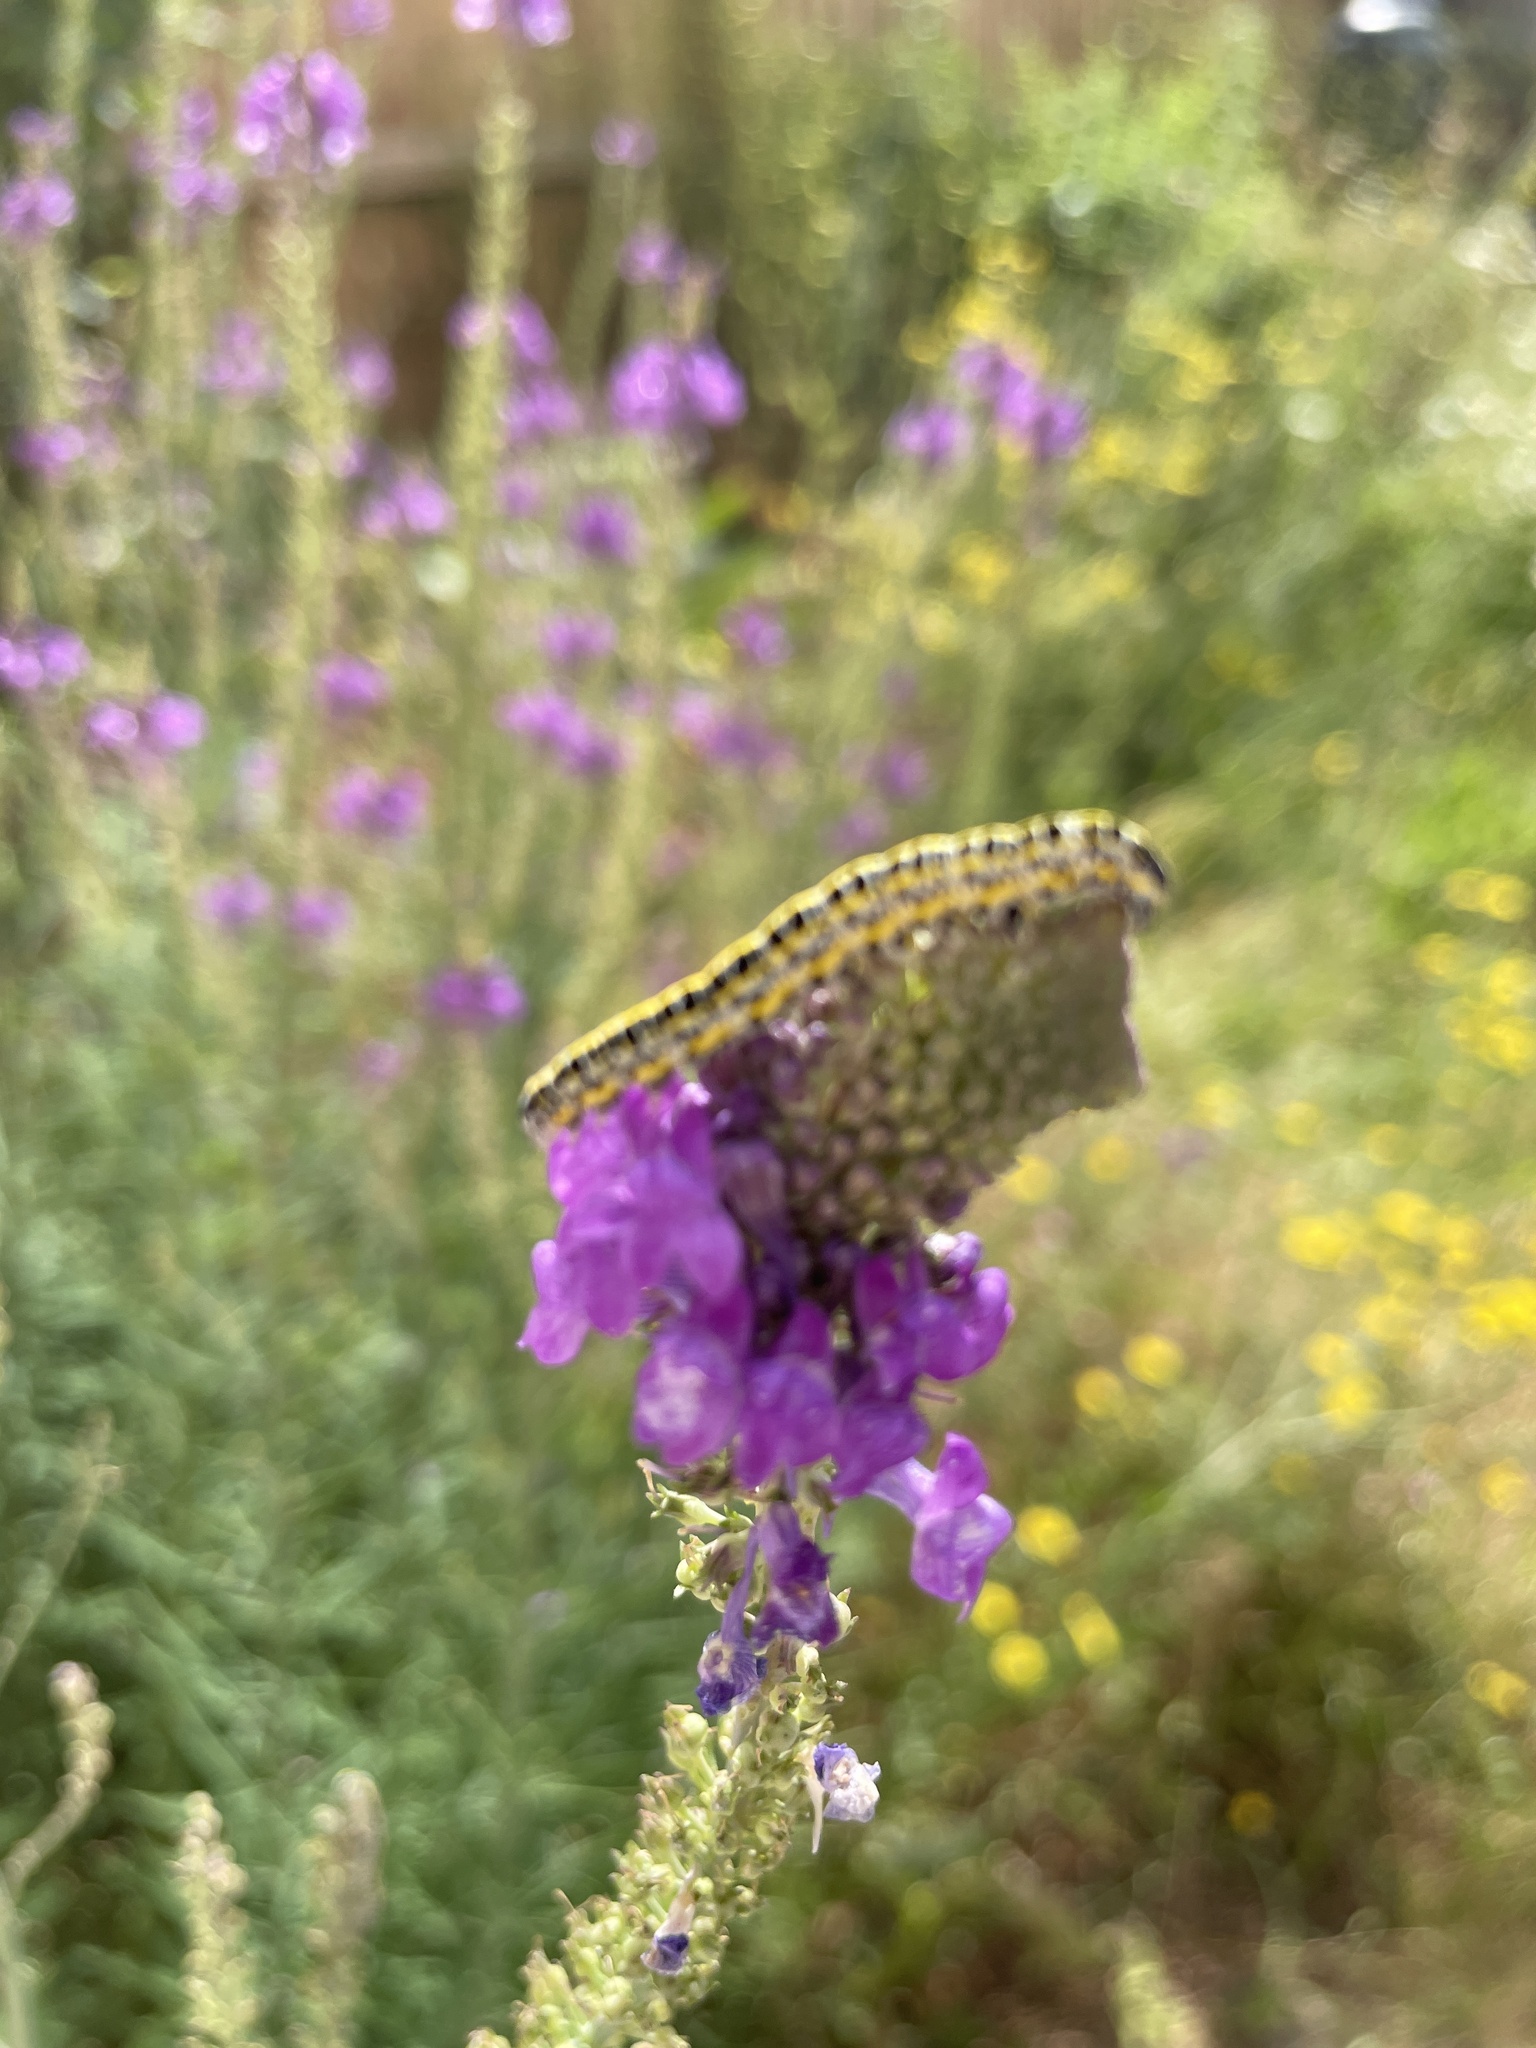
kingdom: Animalia
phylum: Arthropoda
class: Insecta
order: Lepidoptera
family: Noctuidae
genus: Calophasia
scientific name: Calophasia lunula
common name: Toadflax brocade
